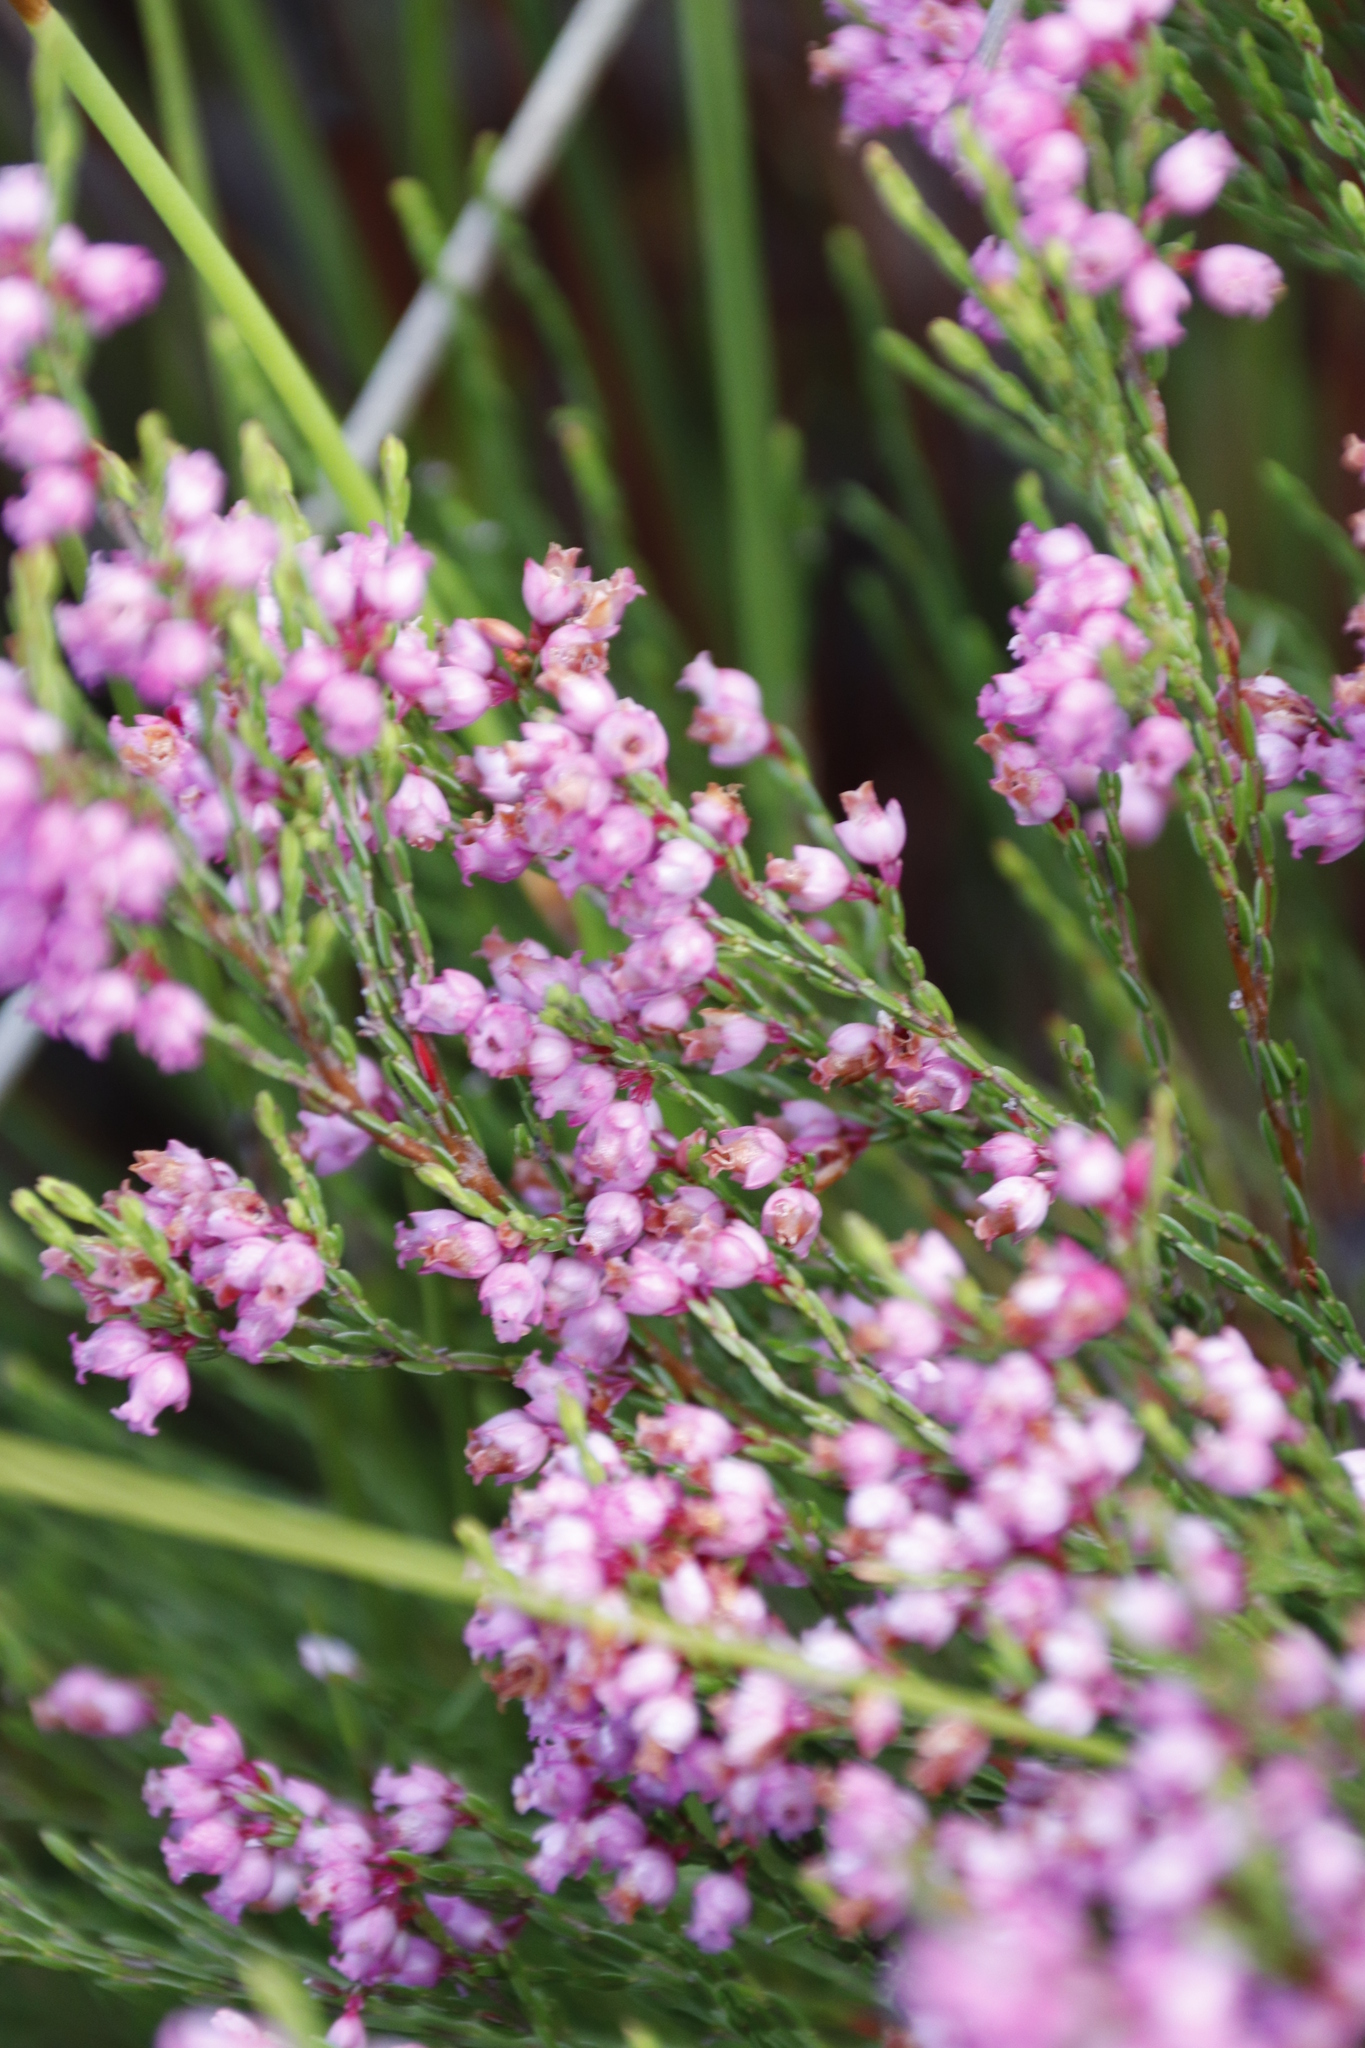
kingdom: Plantae
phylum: Tracheophyta
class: Magnoliopsida
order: Ericales
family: Ericaceae
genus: Erica
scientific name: Erica tenuifolia
